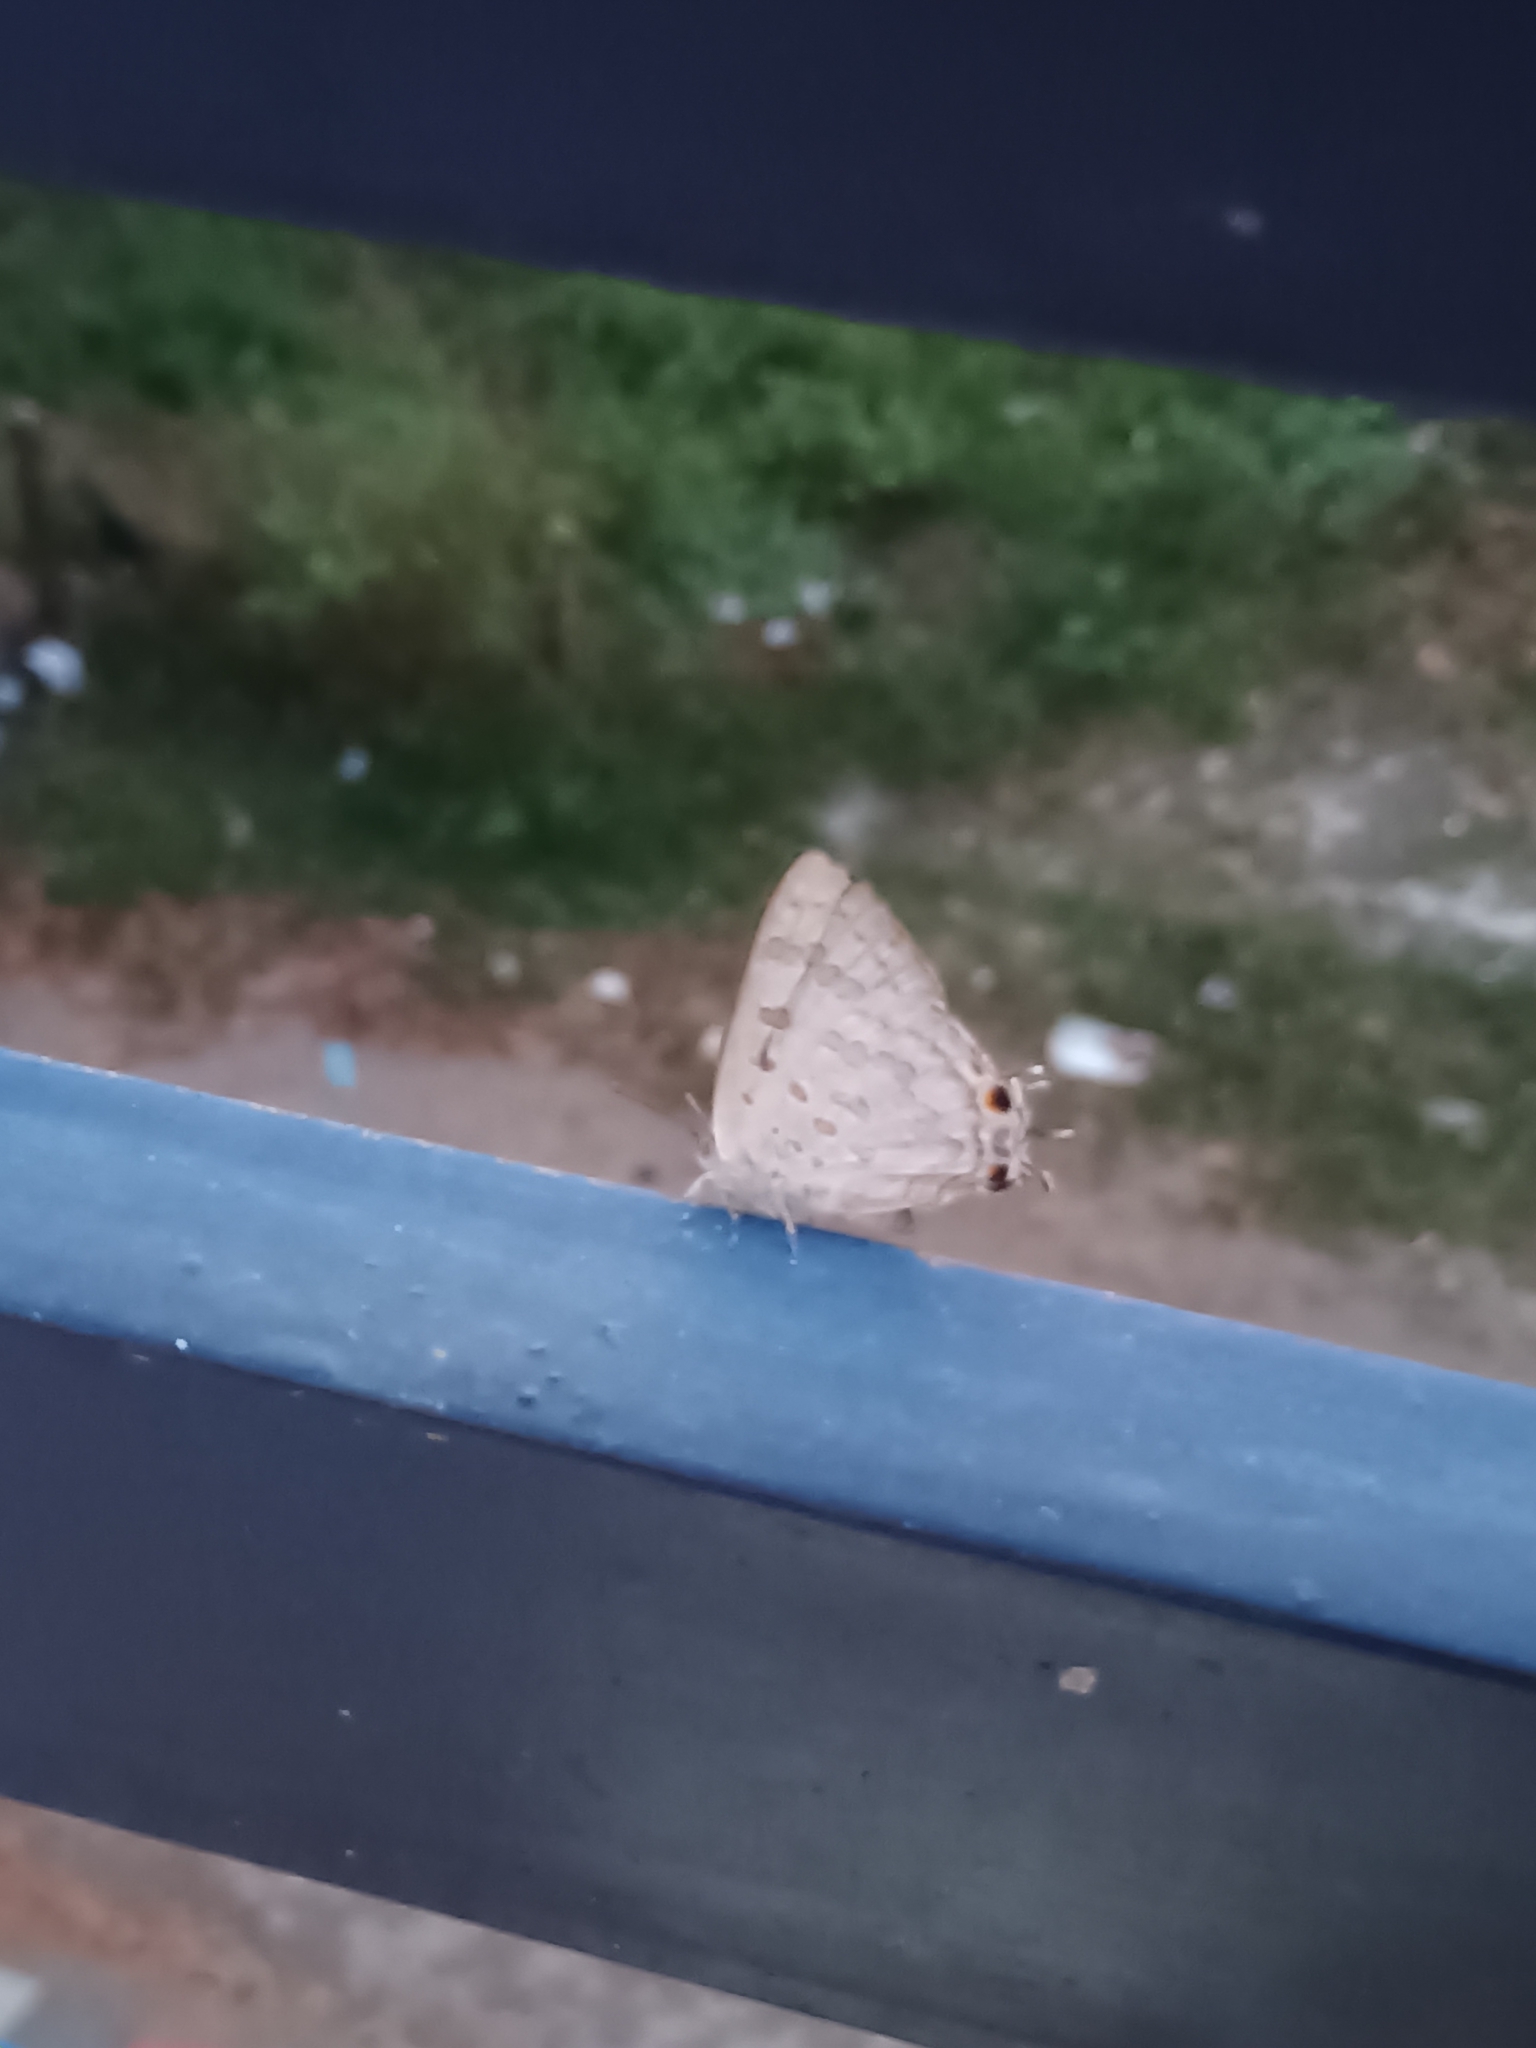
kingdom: Animalia
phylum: Arthropoda
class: Insecta
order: Lepidoptera
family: Lycaenidae
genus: Zesius
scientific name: Zesius chrysomallus
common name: Redspot
